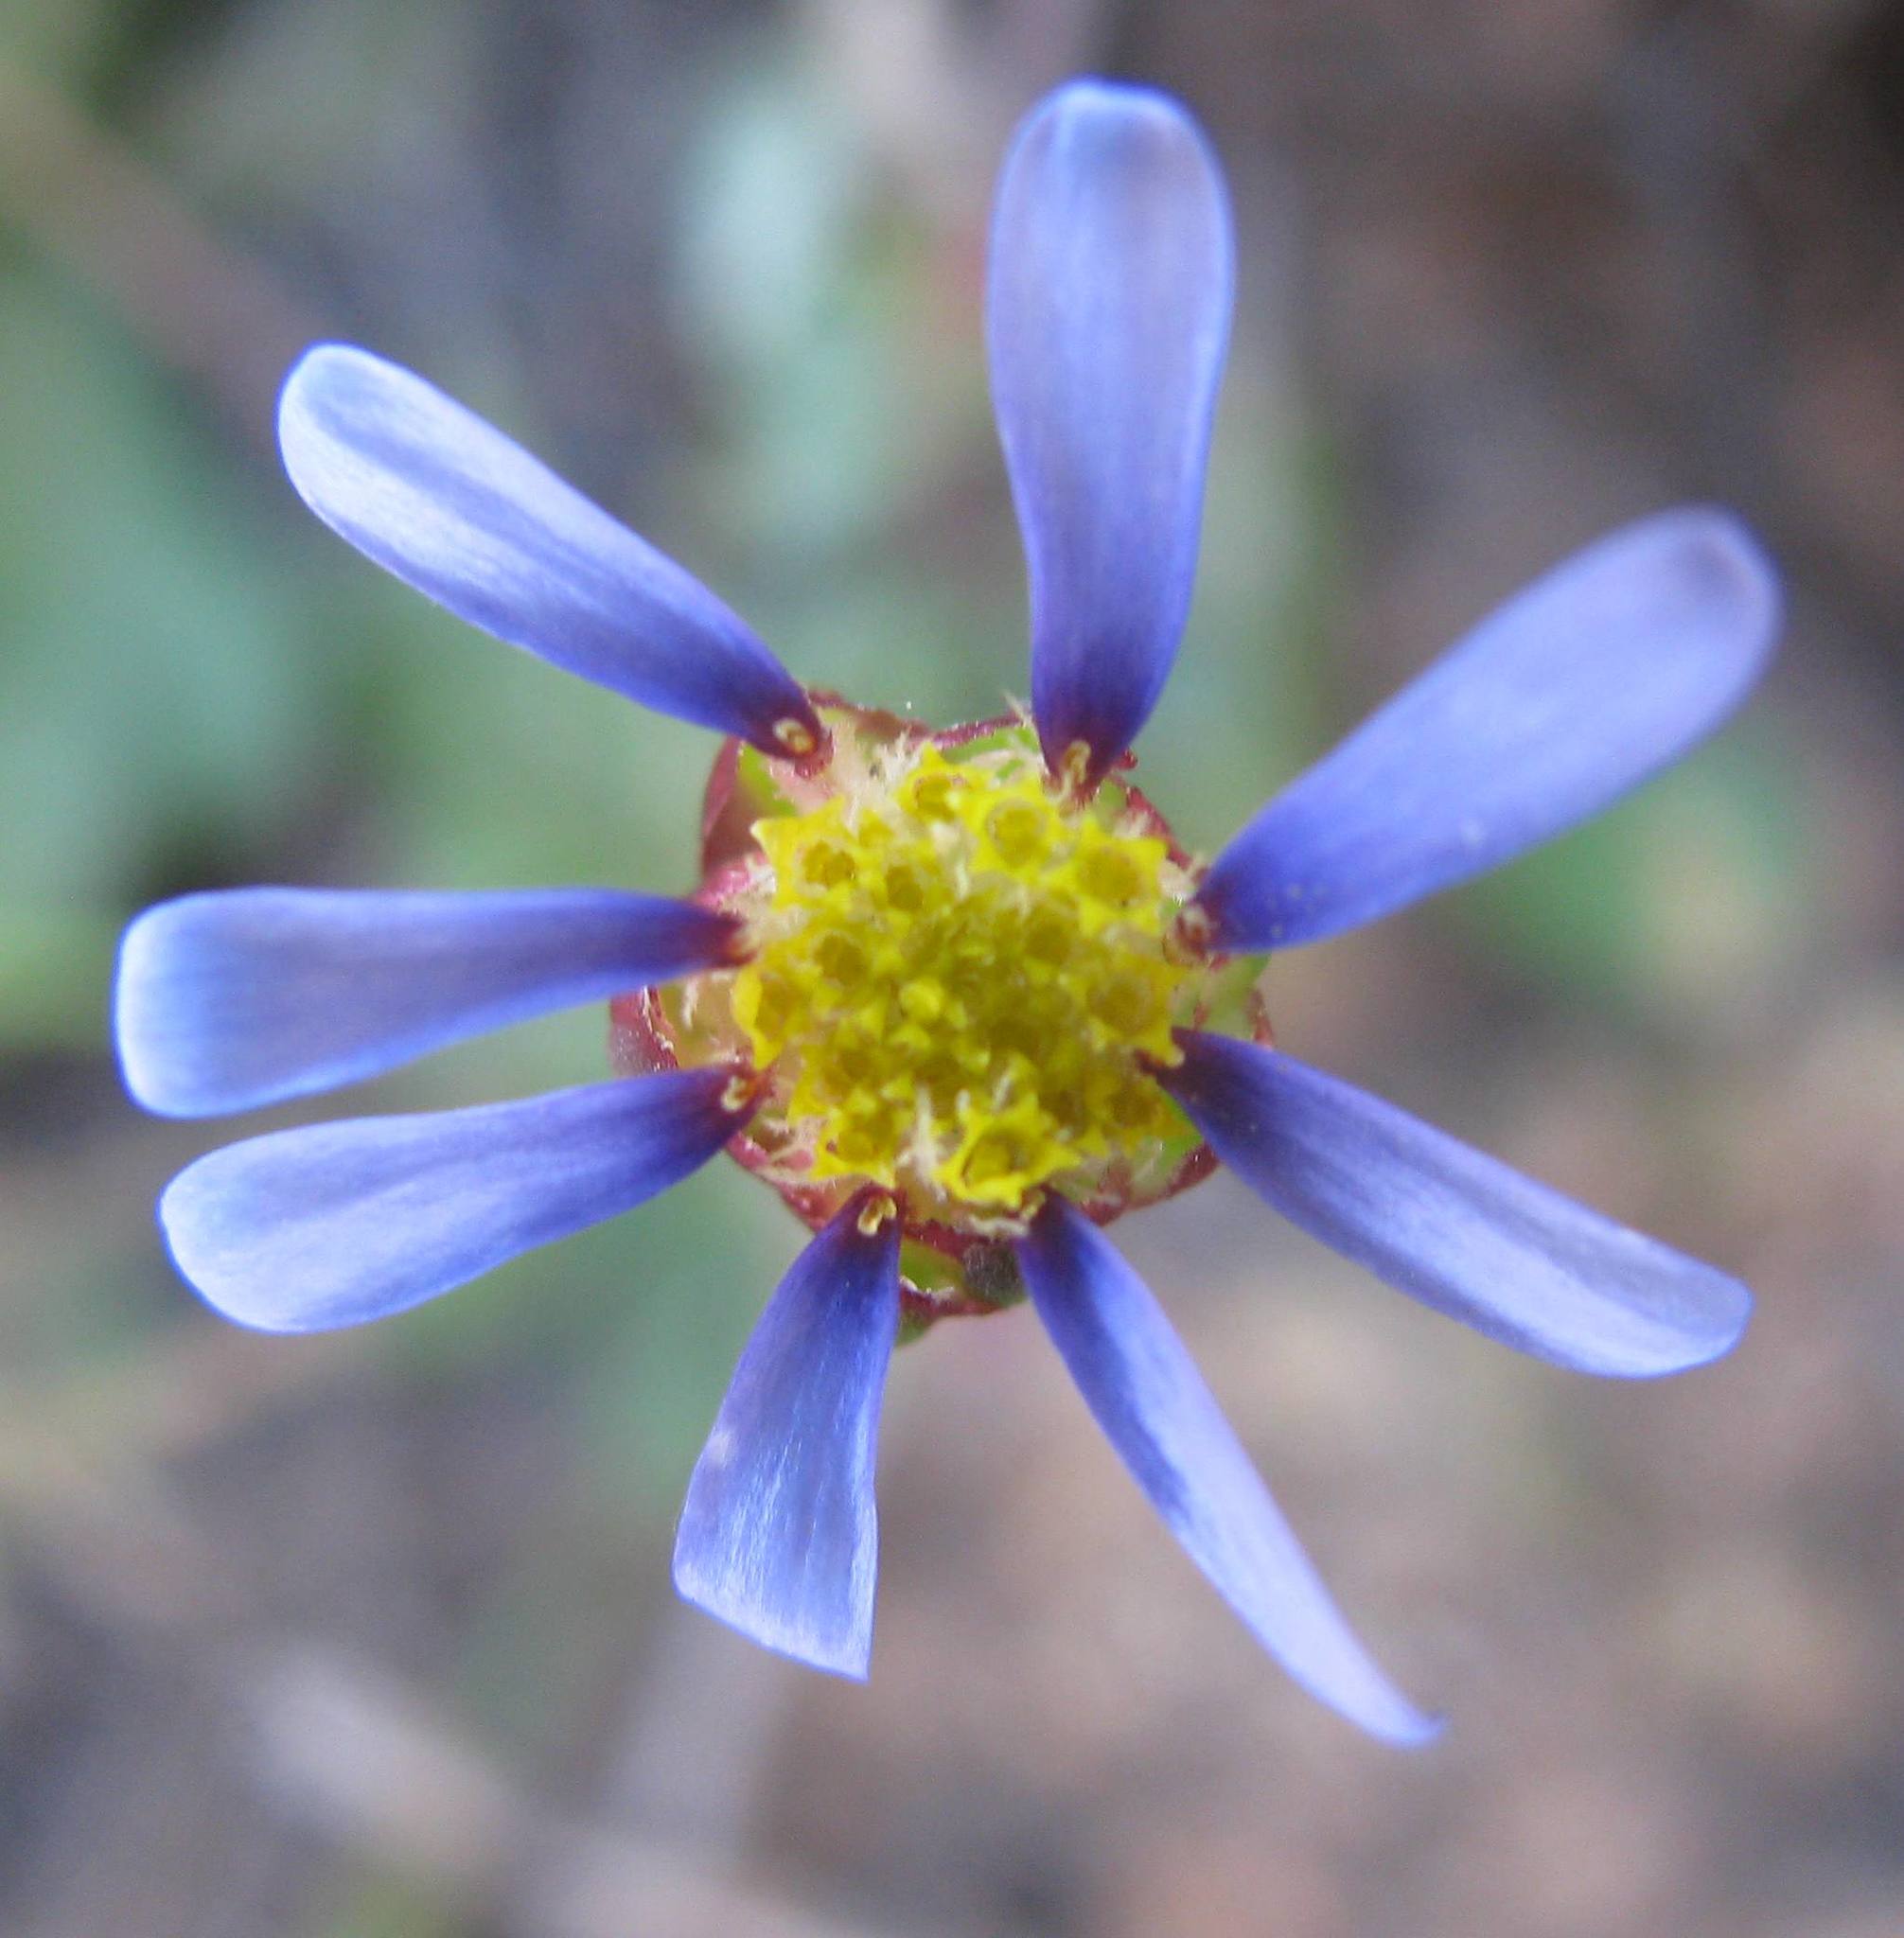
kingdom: Plantae
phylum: Tracheophyta
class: Magnoliopsida
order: Asterales
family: Asteraceae
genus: Felicia
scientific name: Felicia annectens
